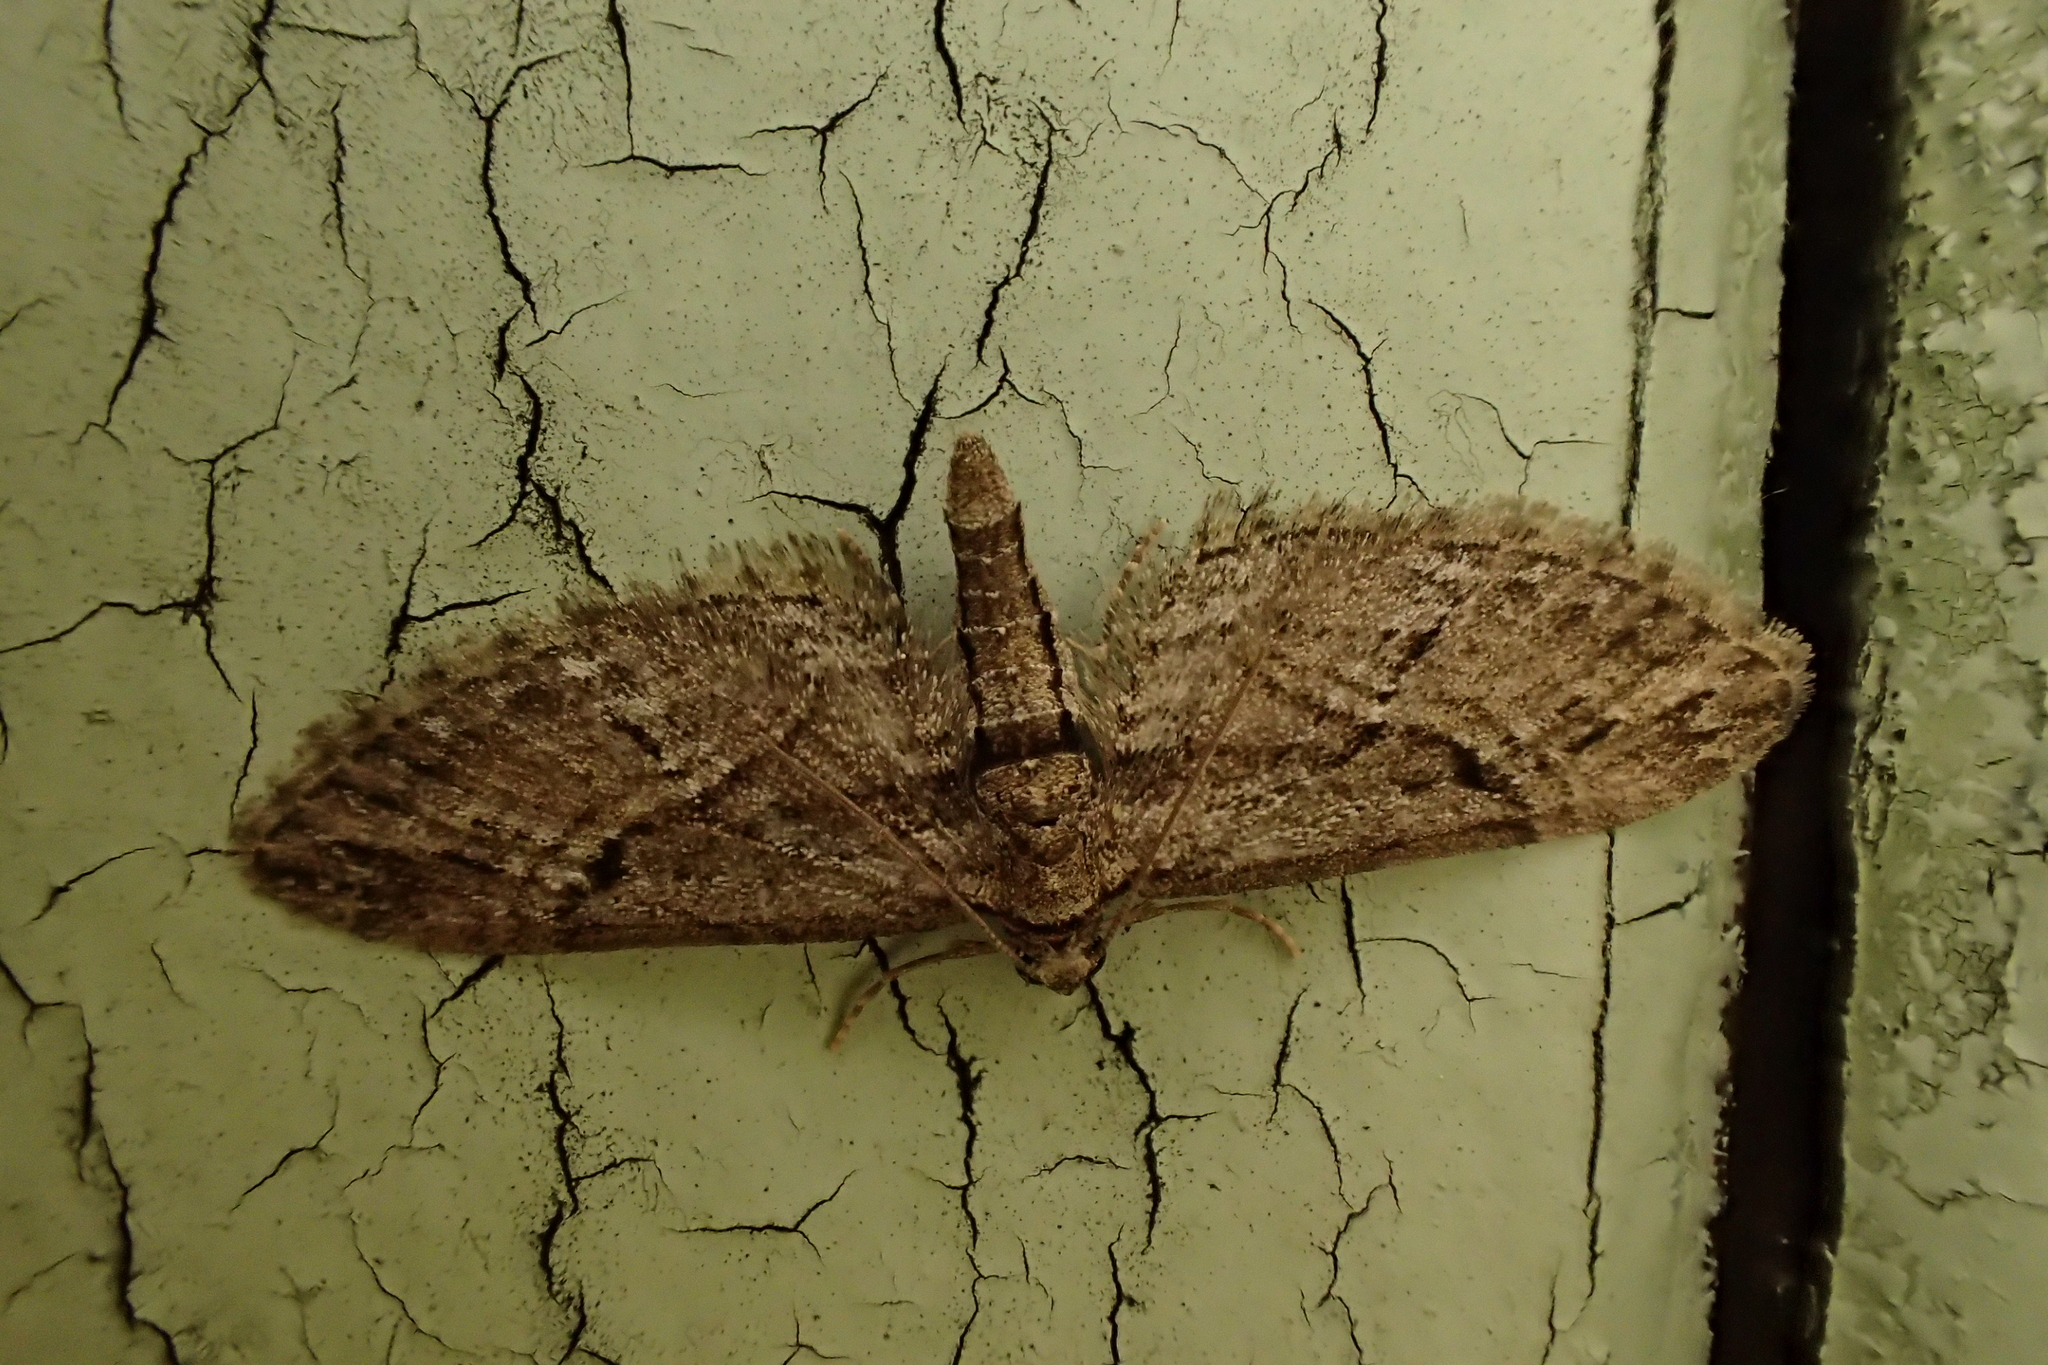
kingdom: Animalia
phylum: Arthropoda
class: Insecta
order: Lepidoptera
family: Geometridae
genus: Eupithecia
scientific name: Eupithecia oxycedrata
